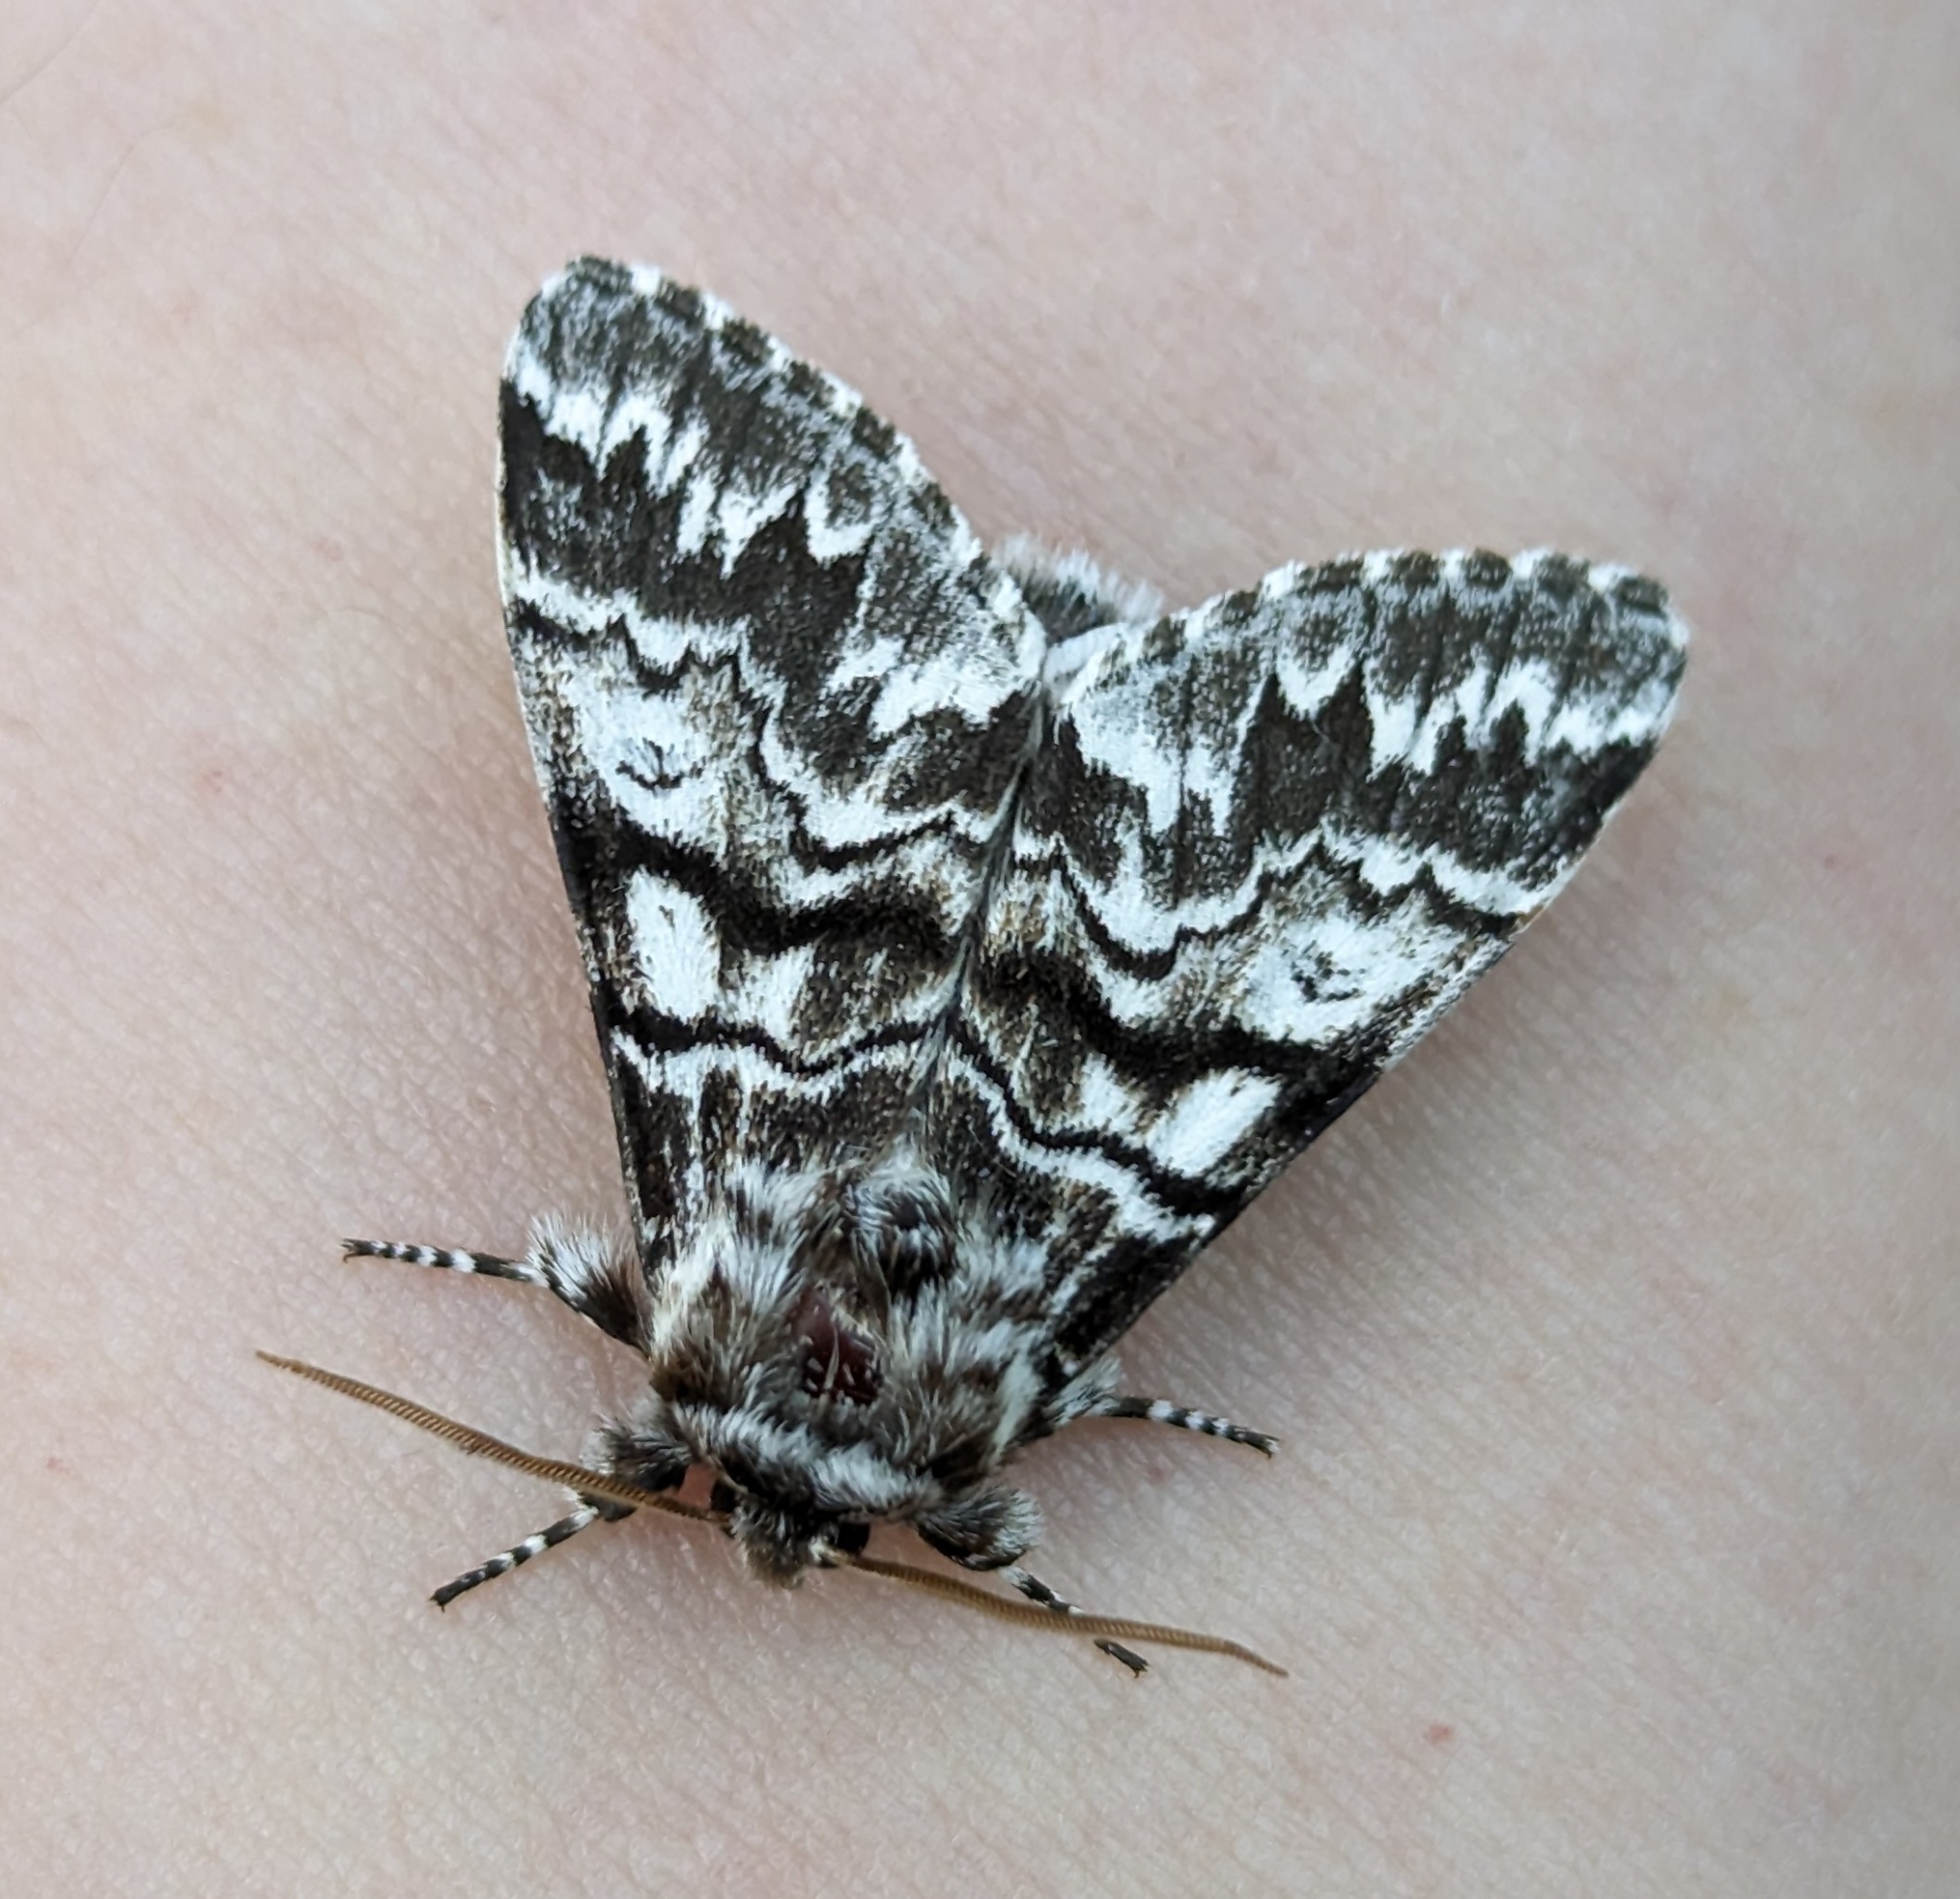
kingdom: Animalia
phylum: Arthropoda
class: Insecta
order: Lepidoptera
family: Noctuidae
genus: Panthea
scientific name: Panthea virginarius
